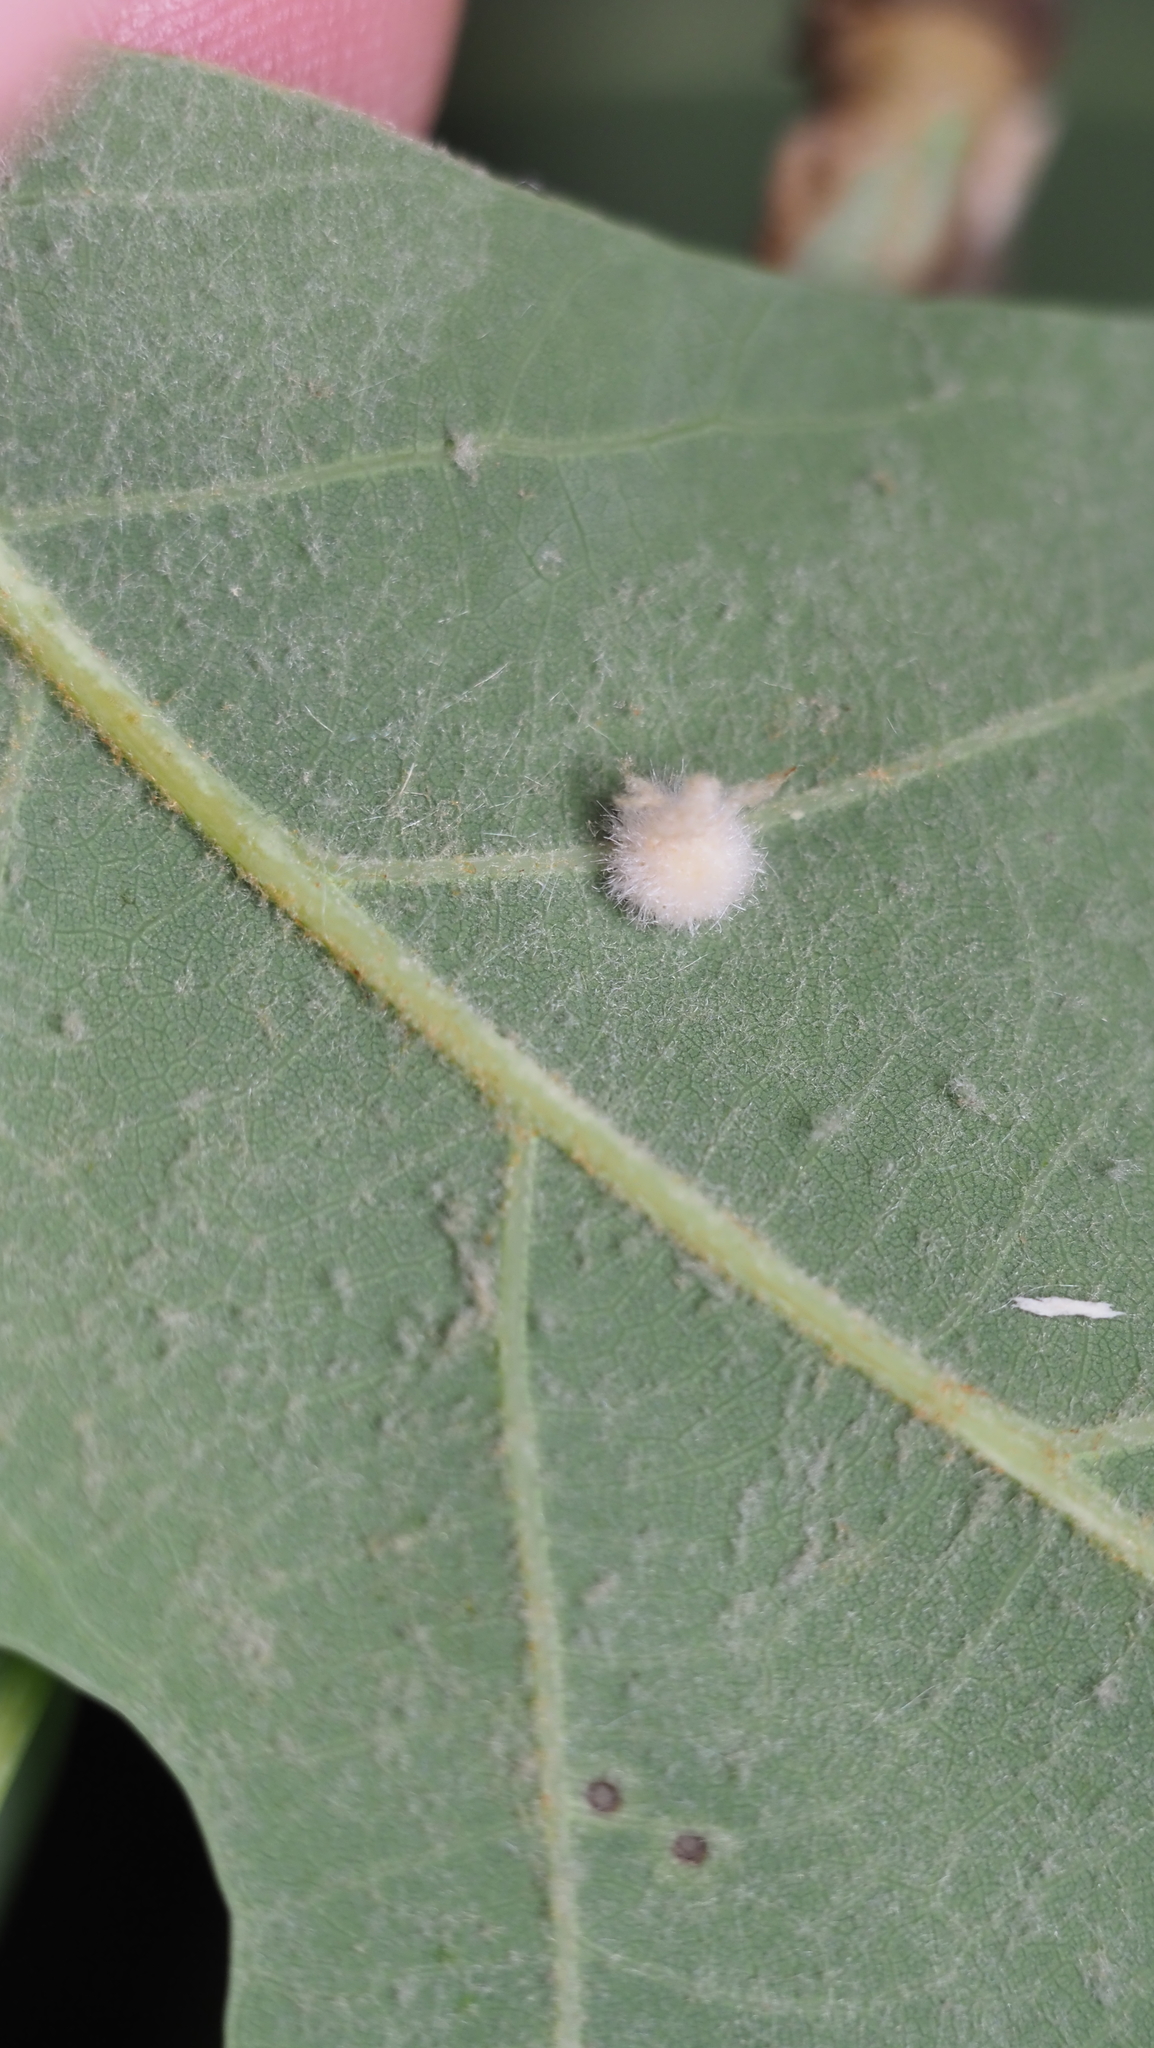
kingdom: Animalia
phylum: Arthropoda
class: Insecta
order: Hymenoptera
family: Cynipidae
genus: Philonix
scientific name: Philonix fulvicollis
